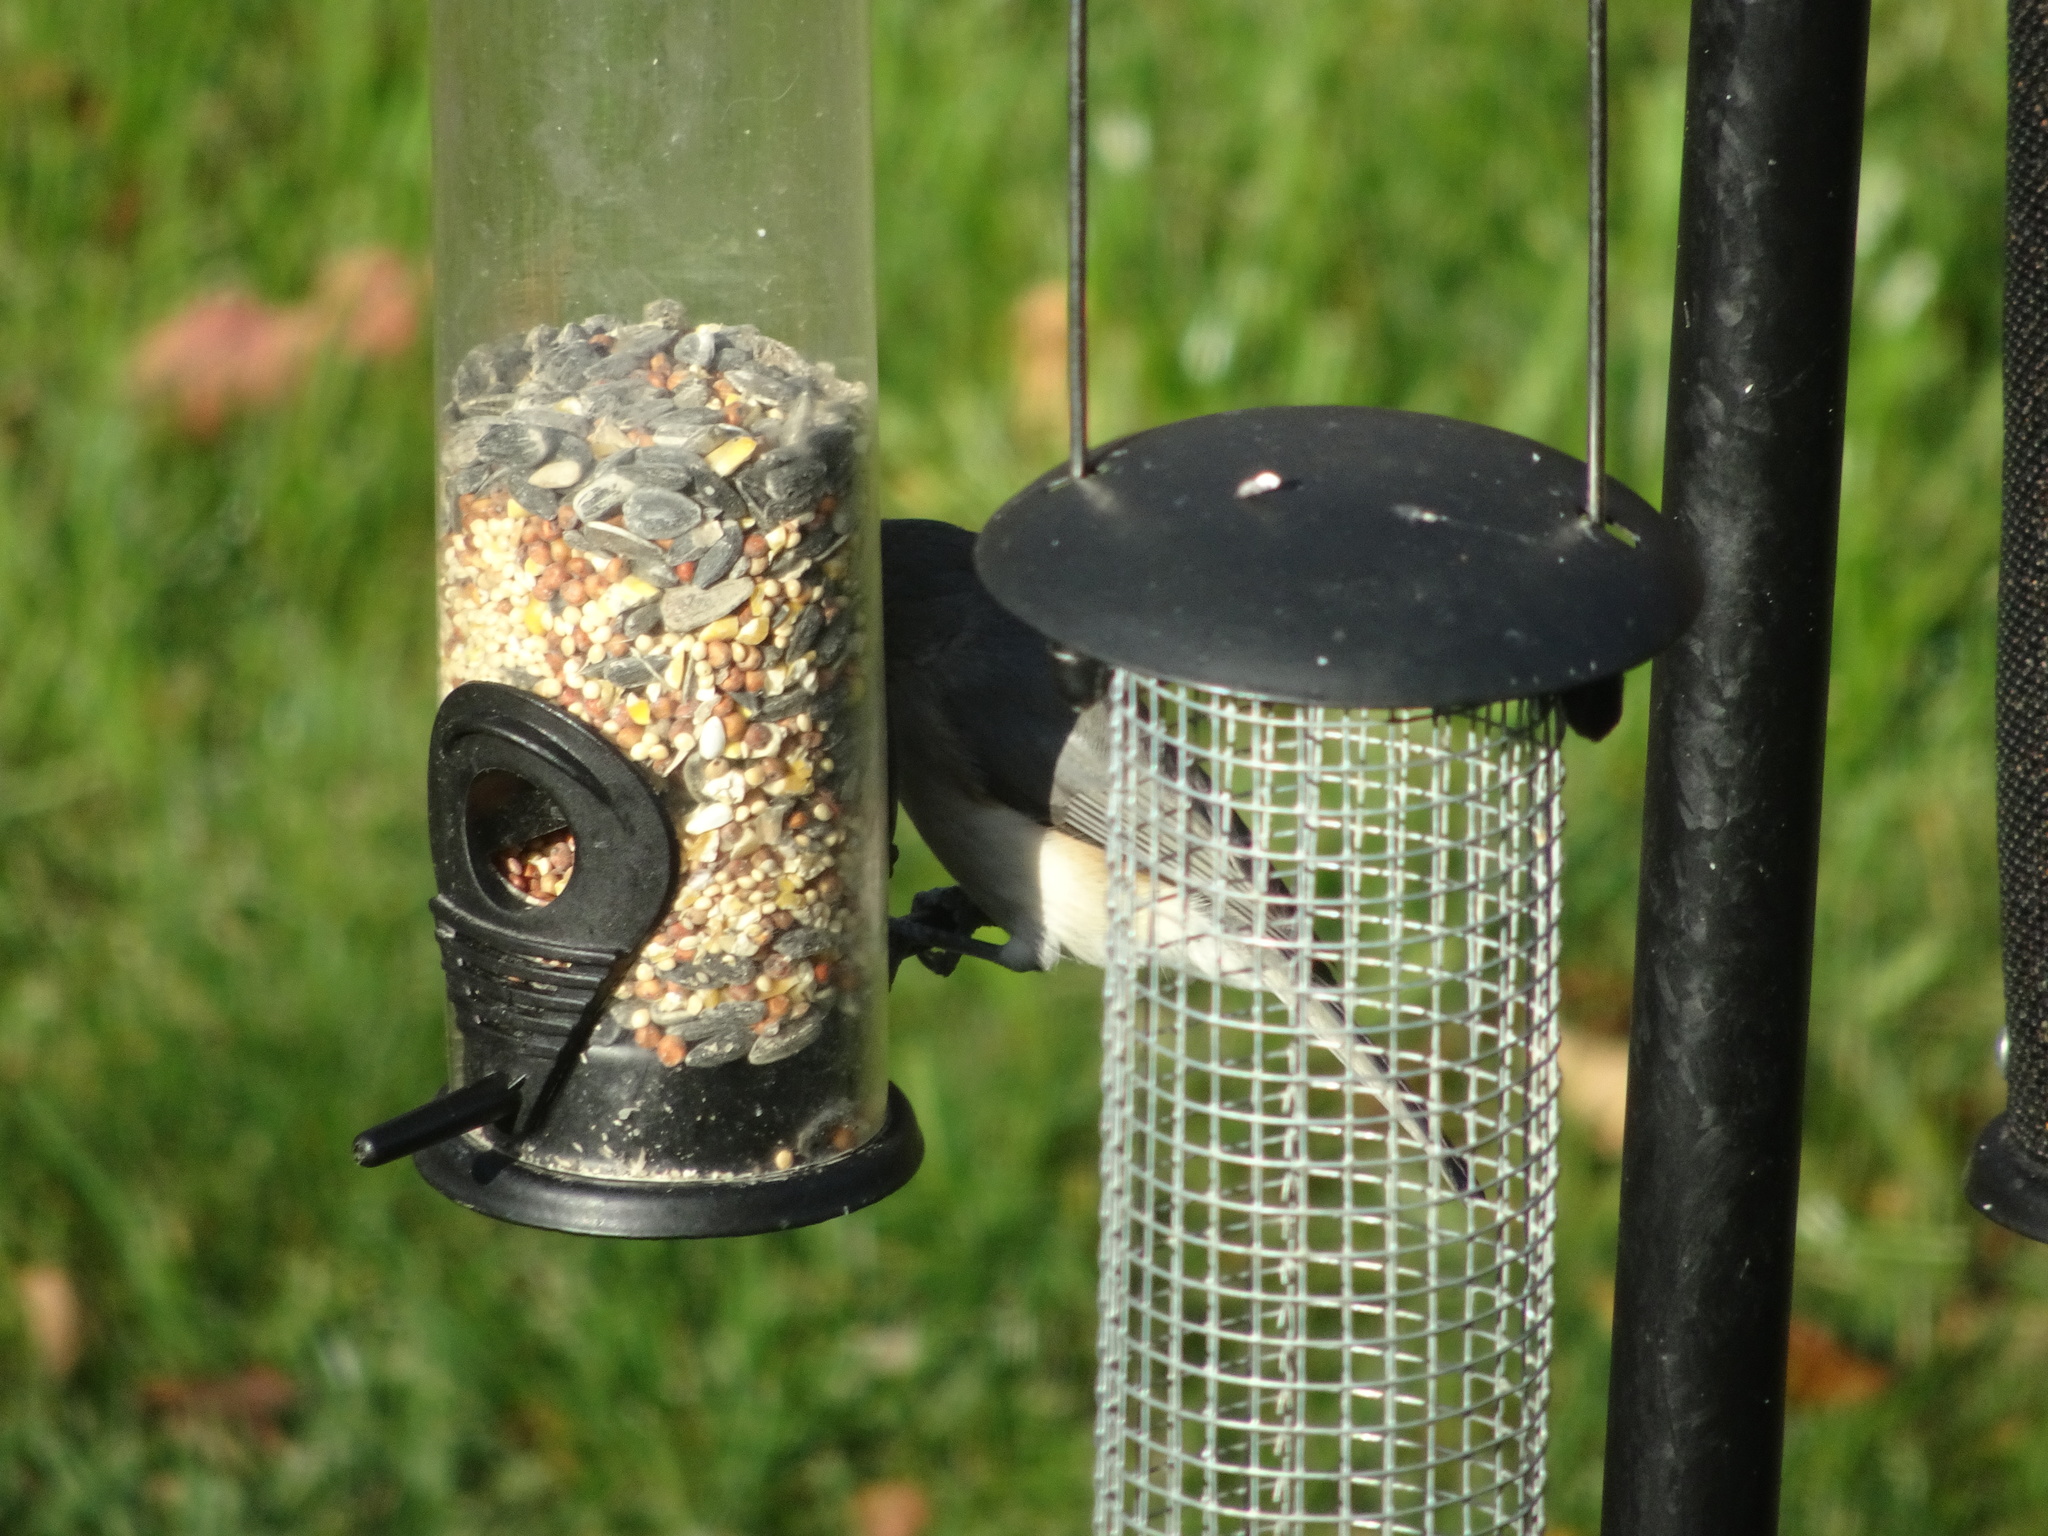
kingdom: Animalia
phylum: Chordata
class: Aves
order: Passeriformes
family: Paridae
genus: Baeolophus
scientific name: Baeolophus bicolor
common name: Tufted titmouse
